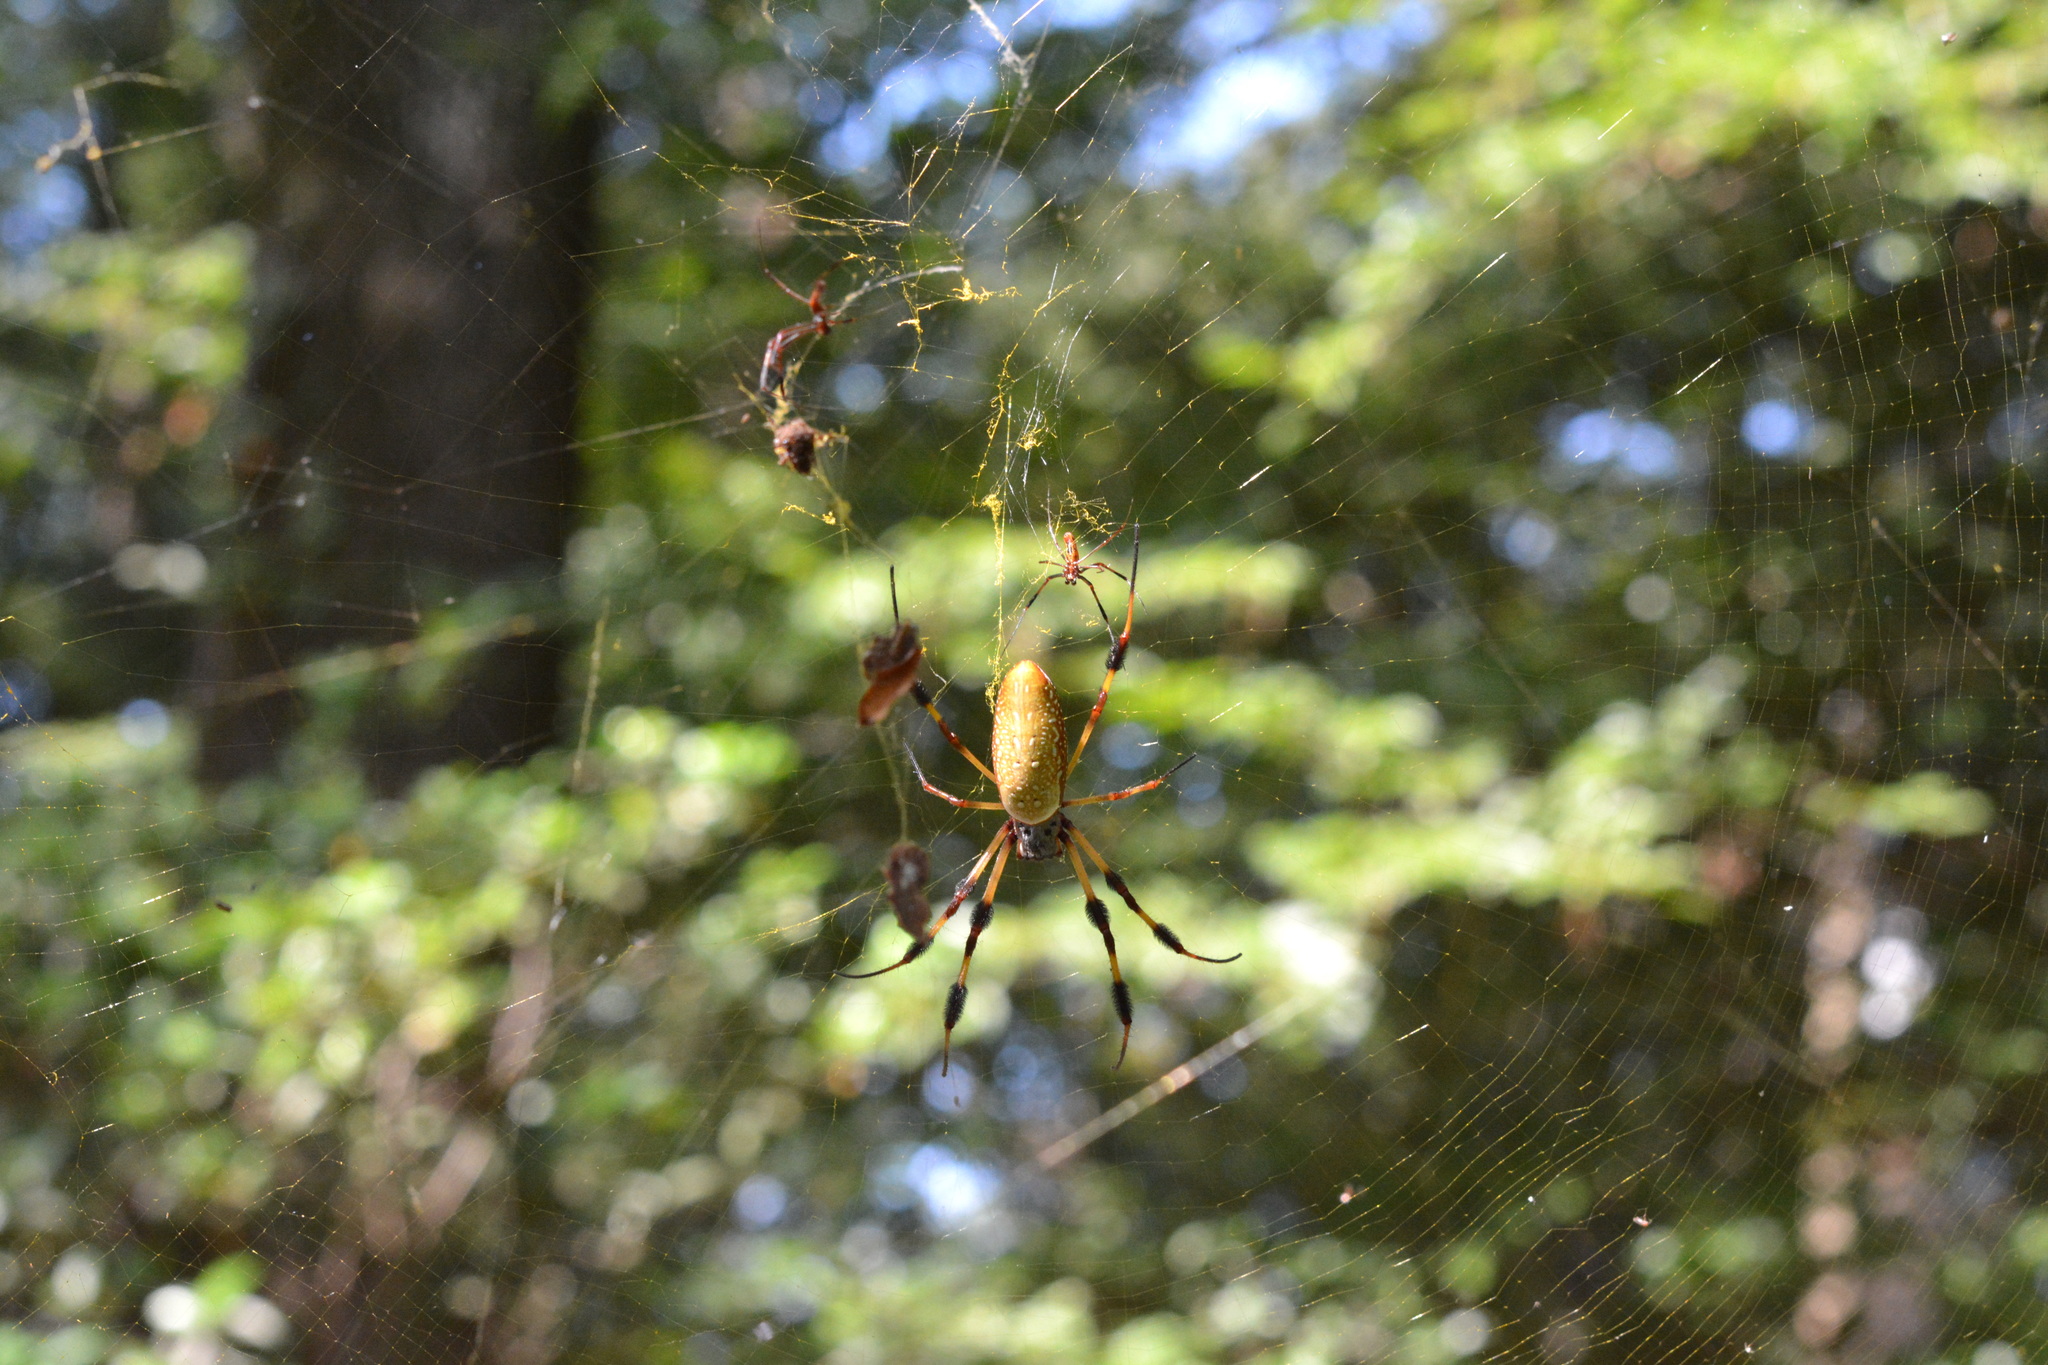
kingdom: Animalia
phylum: Arthropoda
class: Arachnida
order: Araneae
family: Araneidae
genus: Trichonephila
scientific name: Trichonephila clavipes
